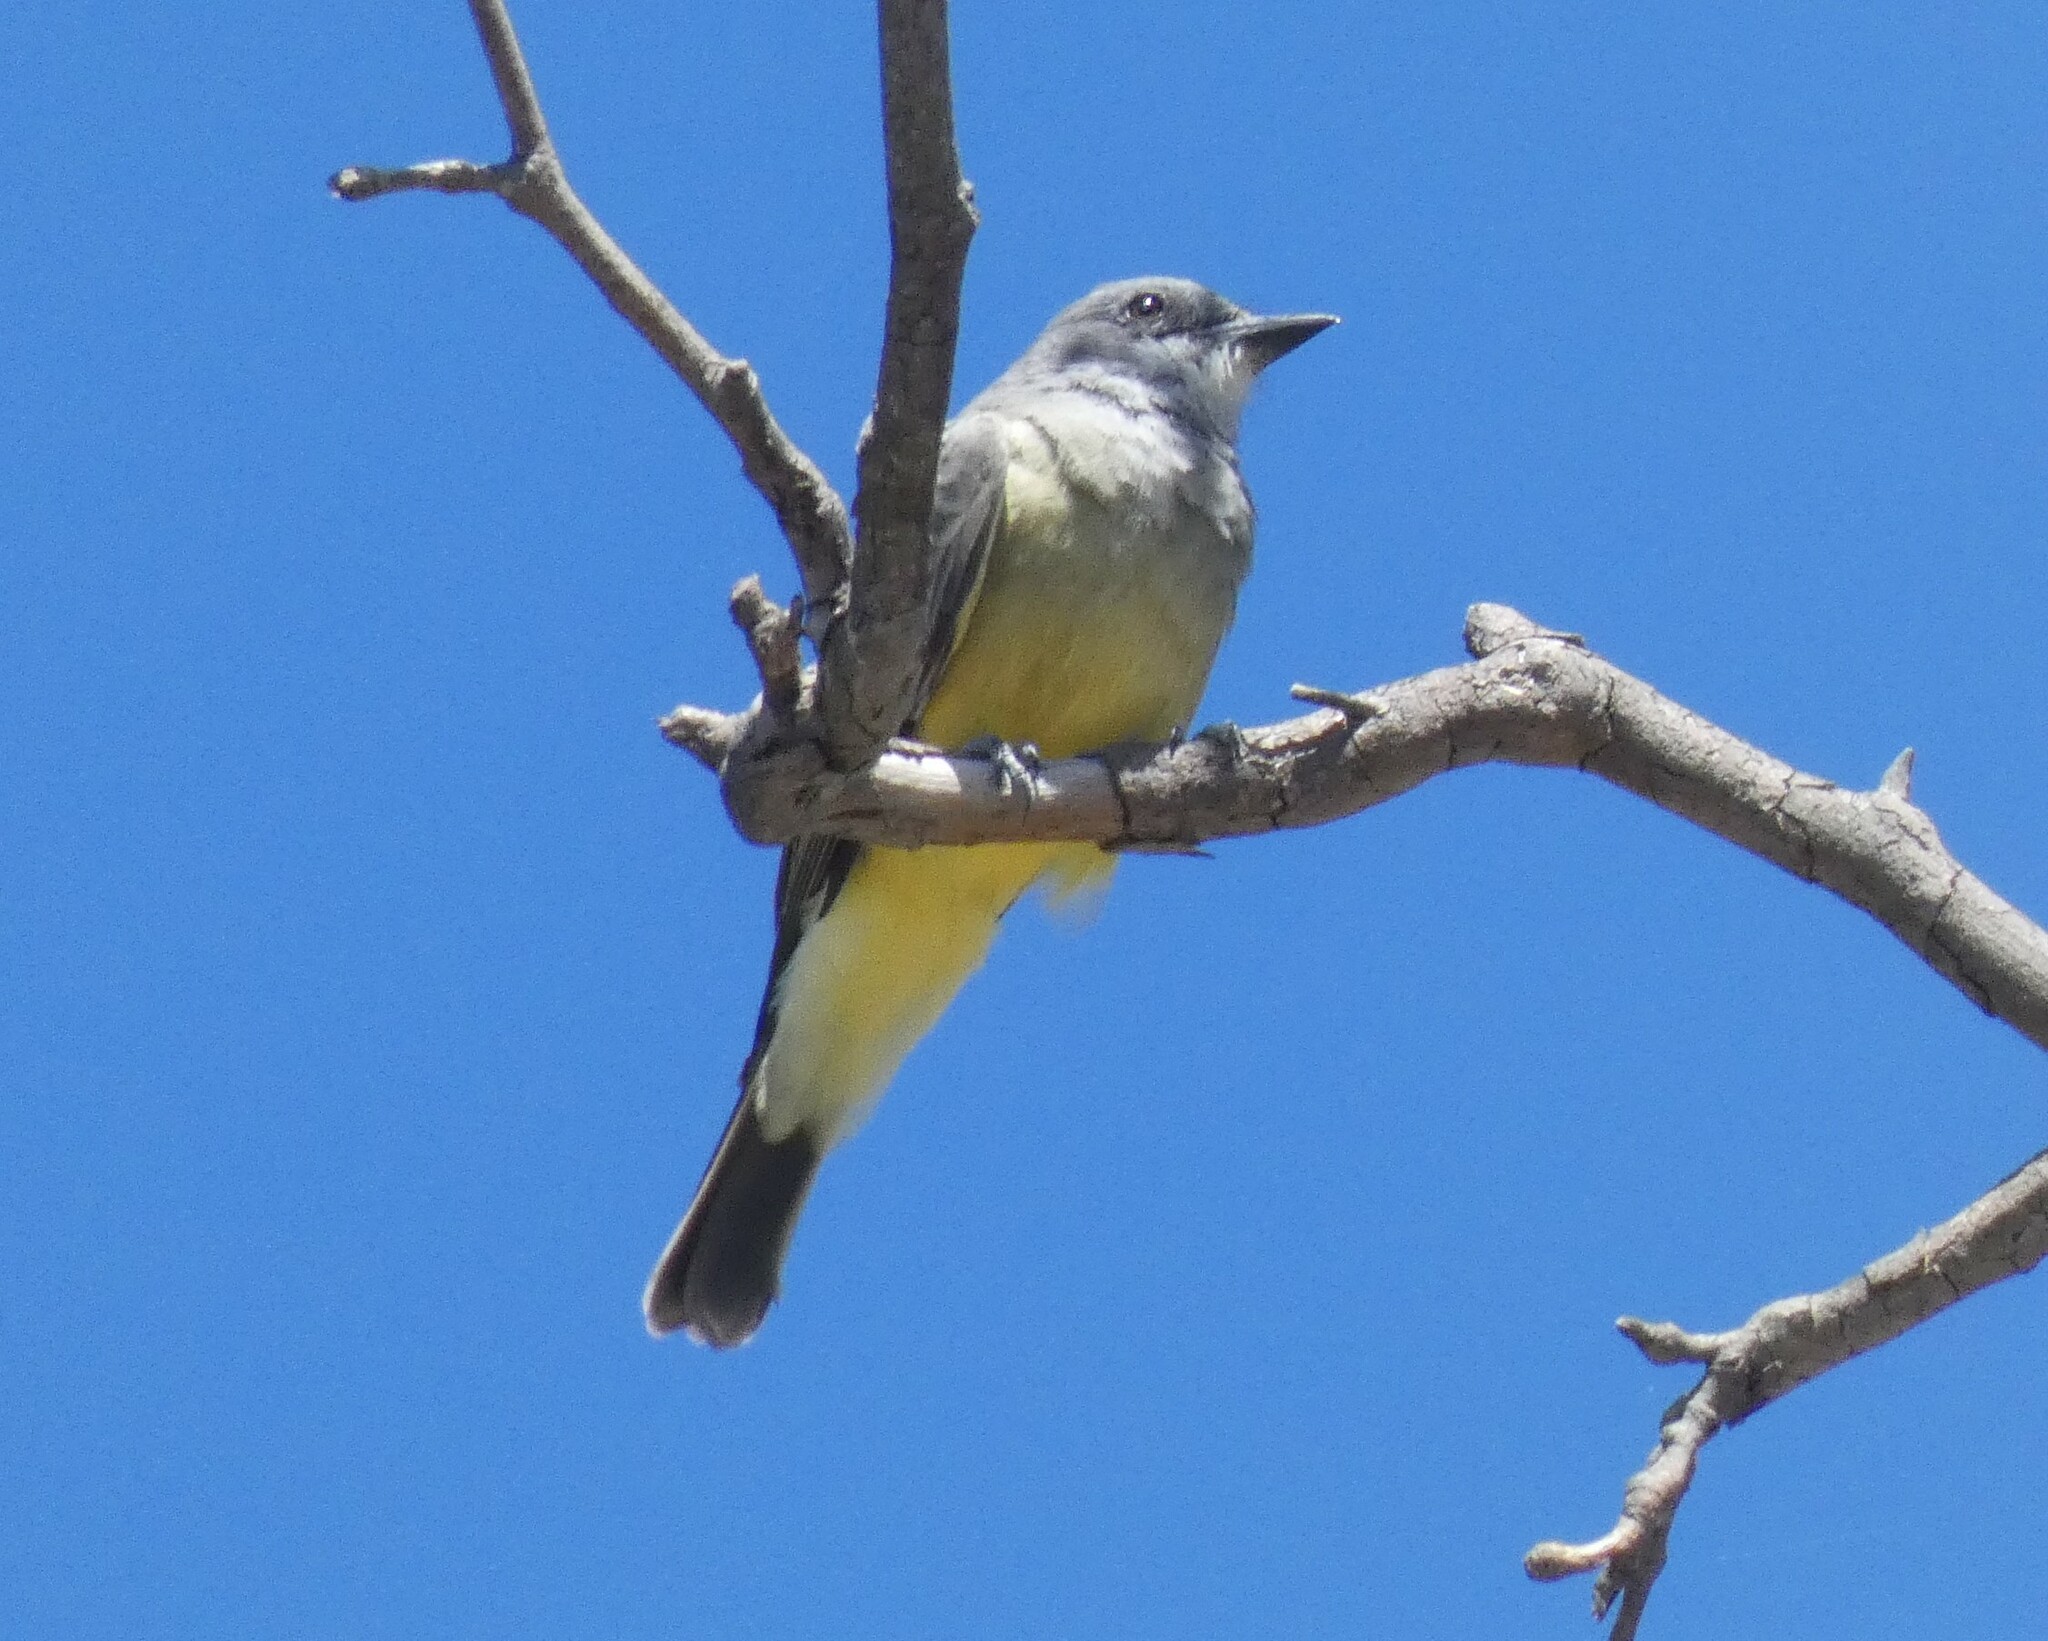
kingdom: Animalia
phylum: Chordata
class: Aves
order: Passeriformes
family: Tyrannidae
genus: Tyrannus
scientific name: Tyrannus vociferans
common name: Cassin's kingbird
